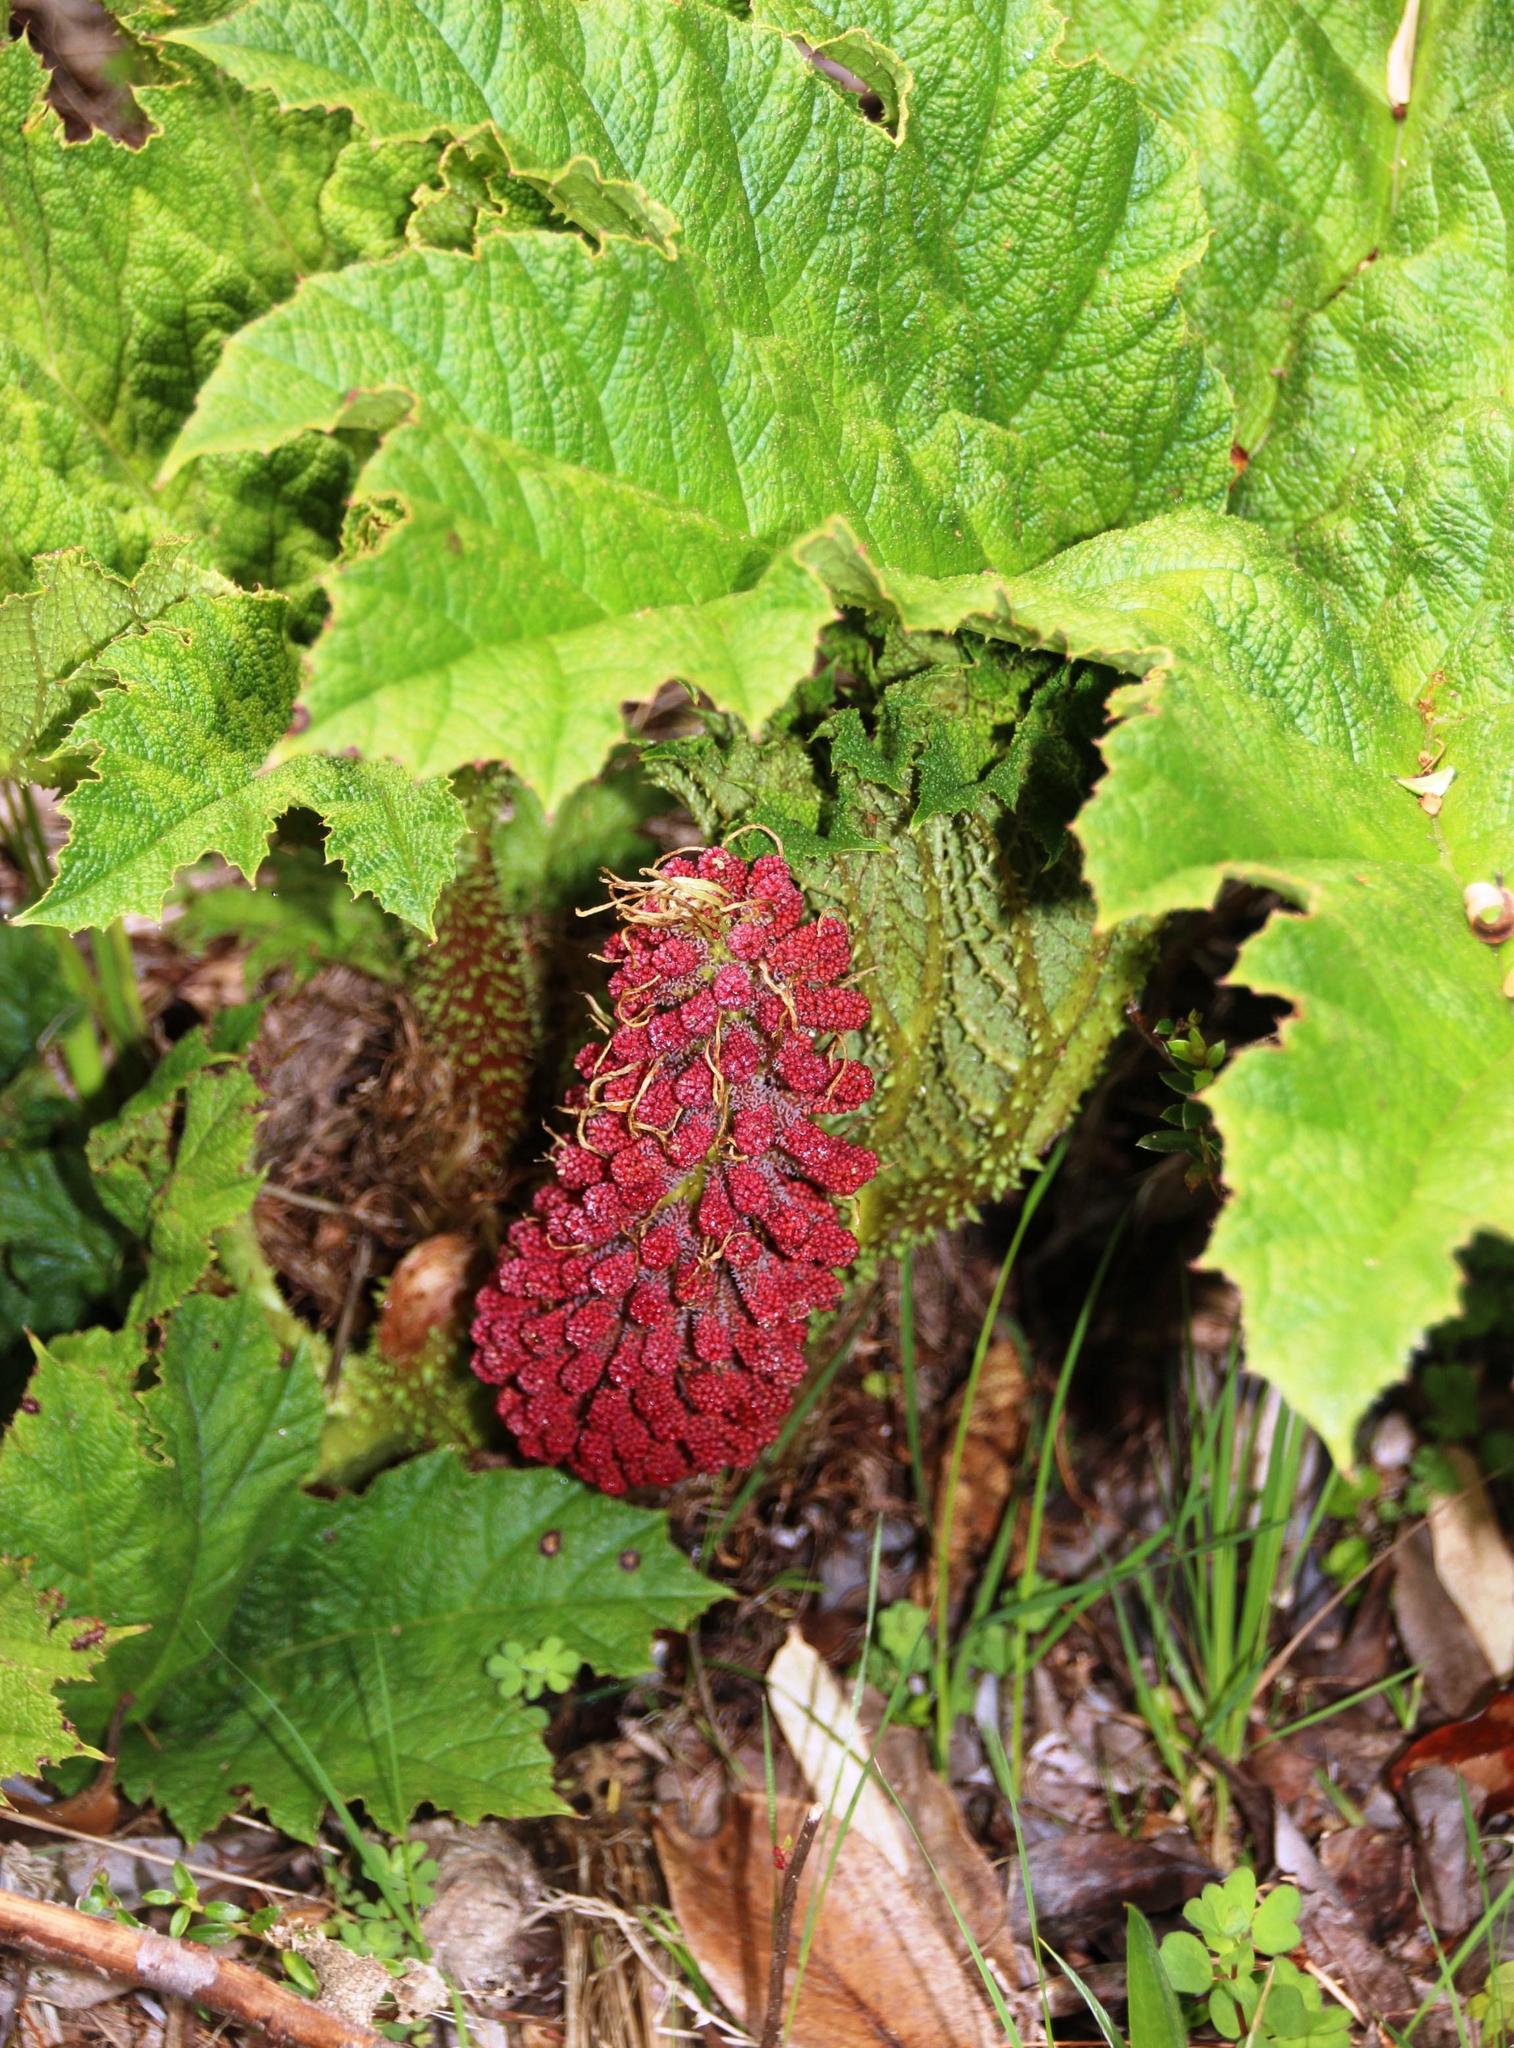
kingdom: Plantae
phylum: Tracheophyta
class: Magnoliopsida
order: Gunnerales
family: Gunneraceae
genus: Gunnera
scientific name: Gunnera tinctoria
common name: Giant-rhubarb
